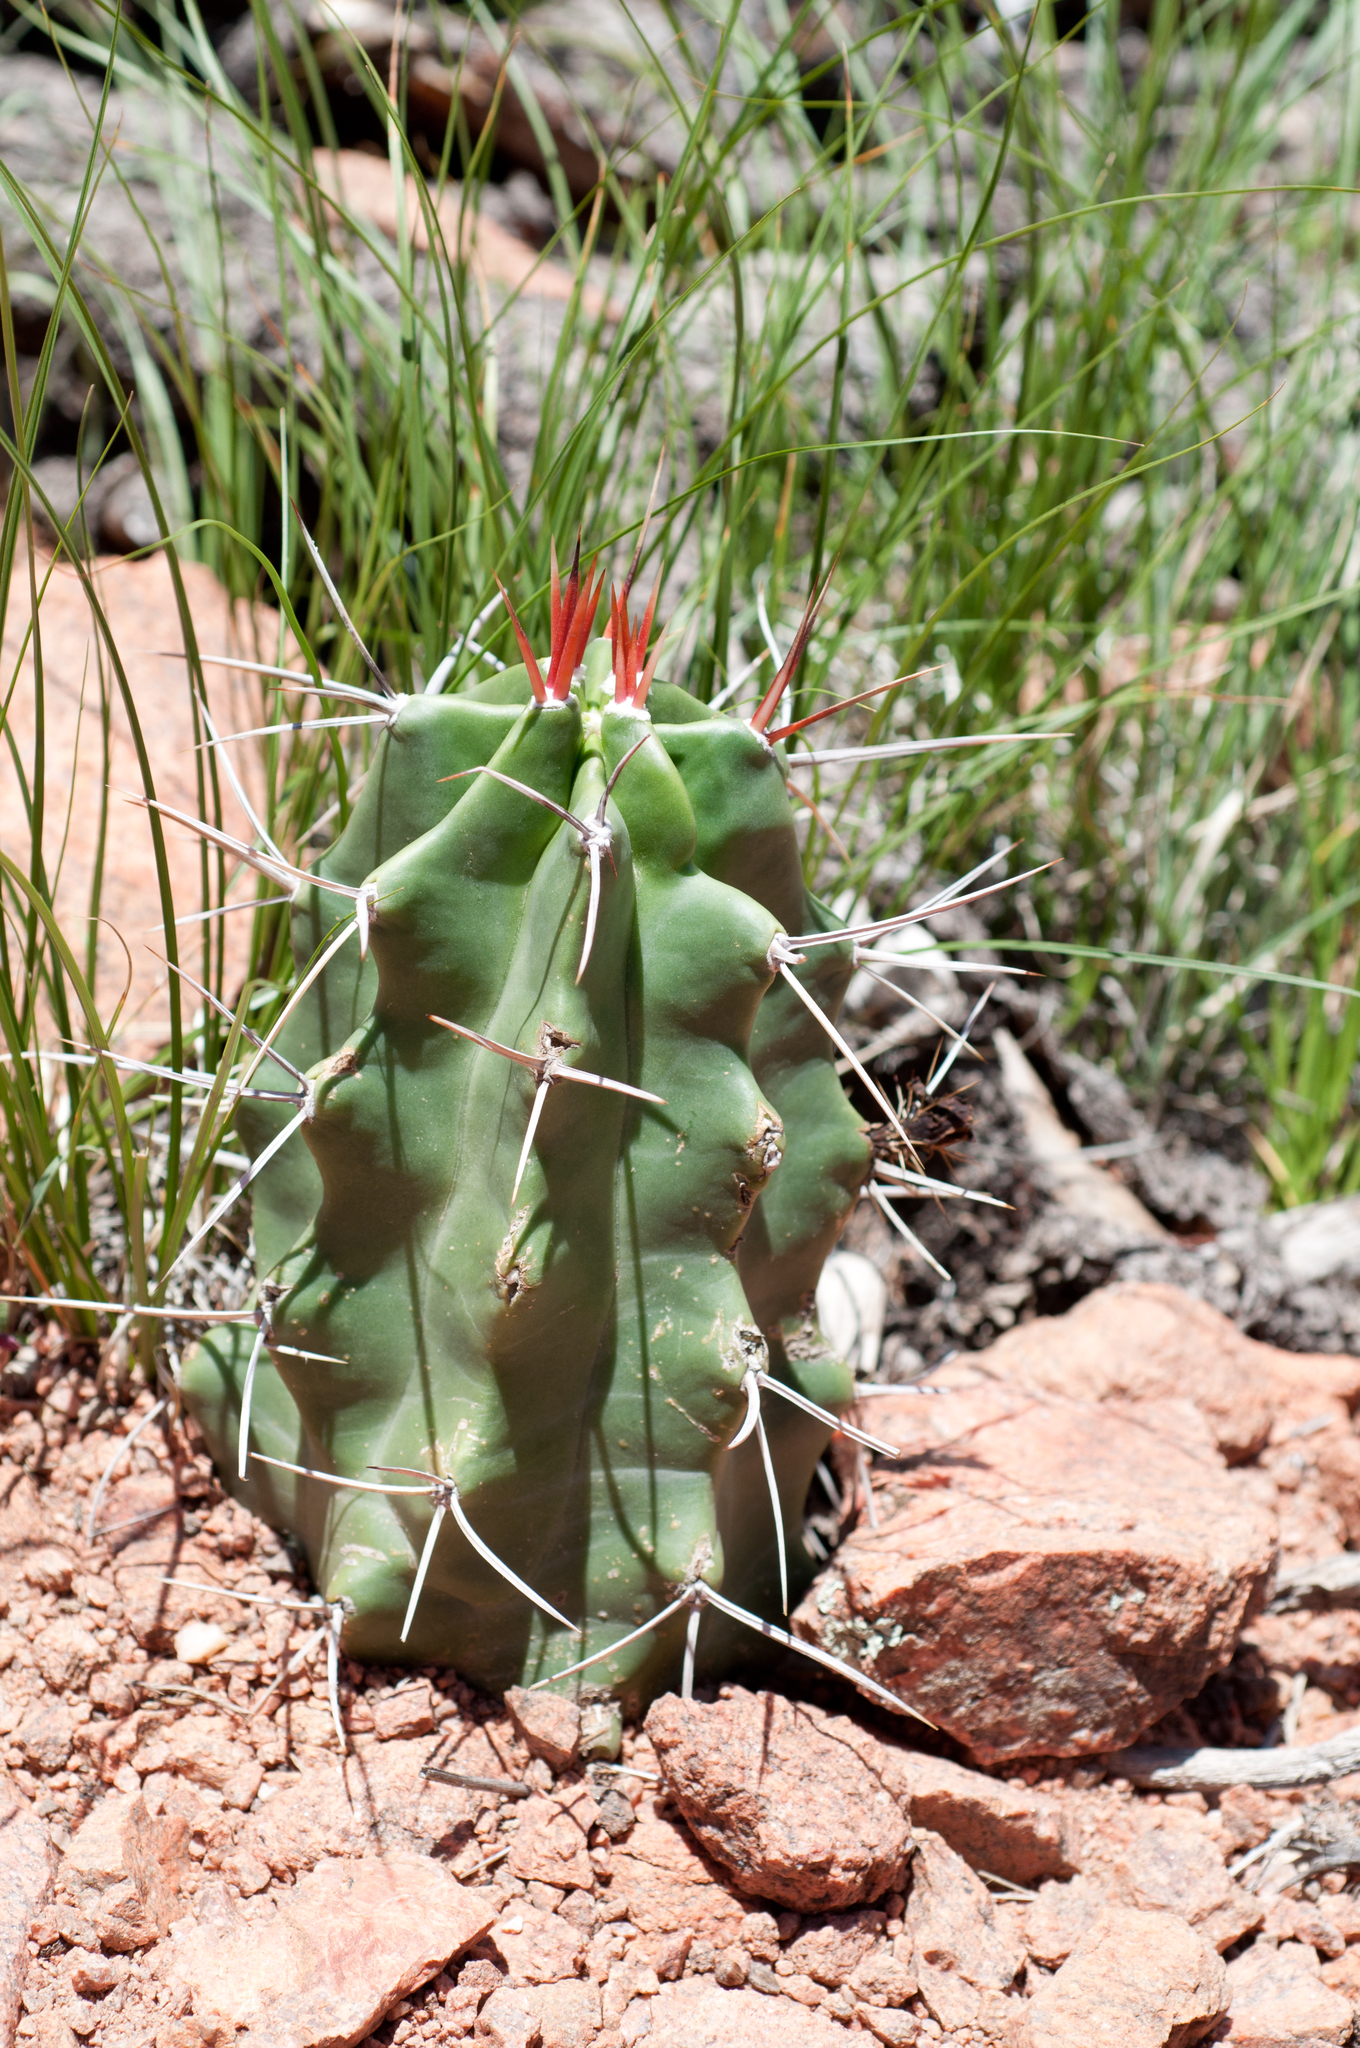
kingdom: Plantae
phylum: Tracheophyta
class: Magnoliopsida
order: Caryophyllales
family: Cactaceae
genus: Echinocereus
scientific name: Echinocereus triglochidiatus
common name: Claretcup hedgehog
